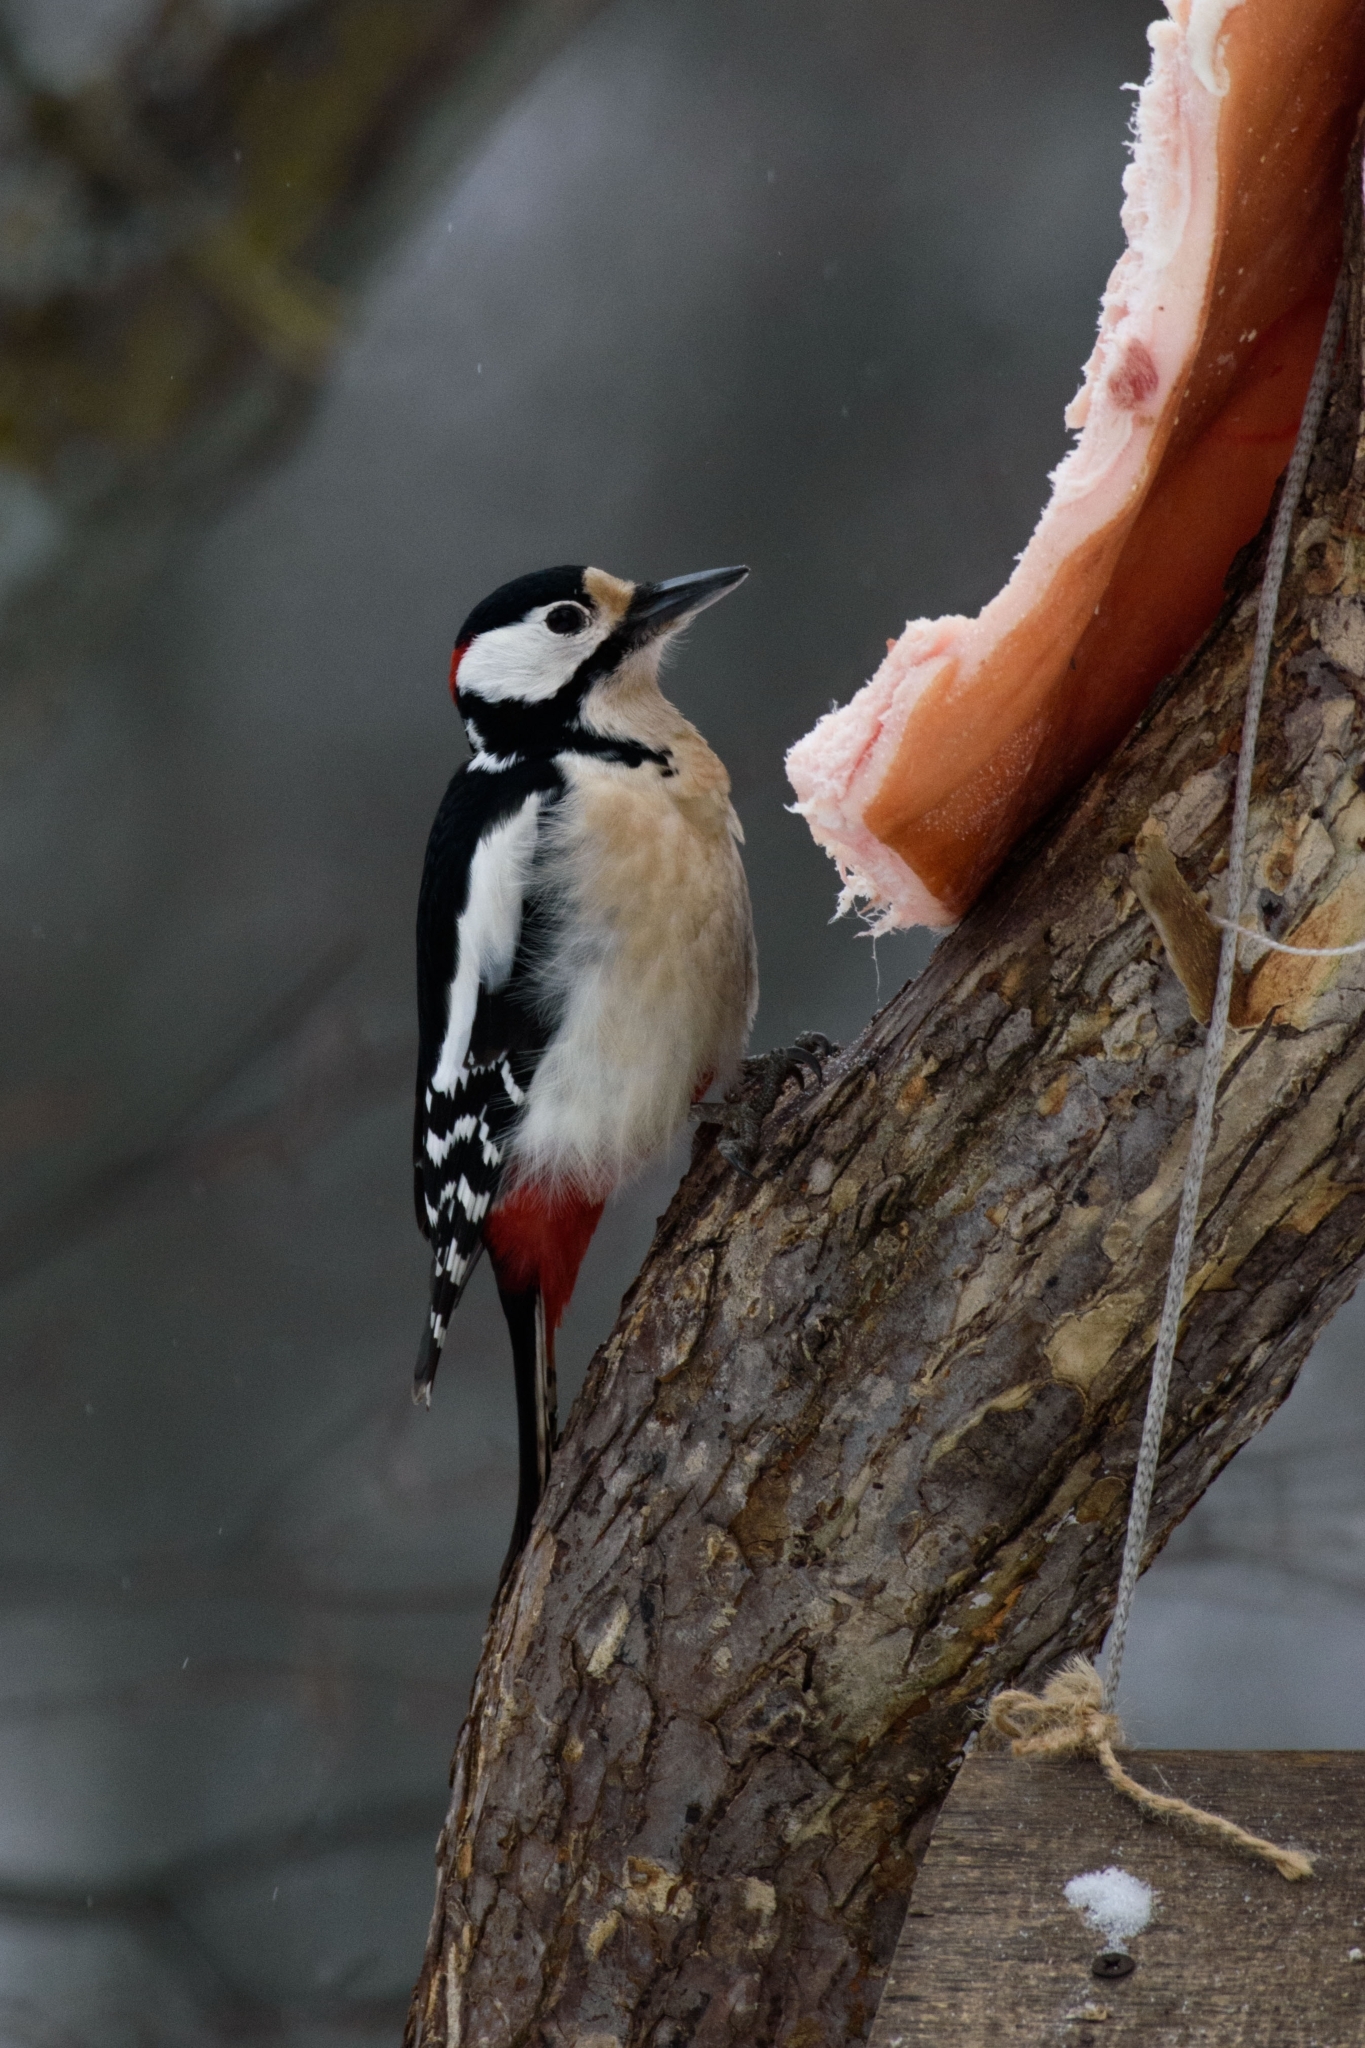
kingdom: Animalia
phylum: Chordata
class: Aves
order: Piciformes
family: Picidae
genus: Dendrocopos
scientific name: Dendrocopos major
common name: Great spotted woodpecker
